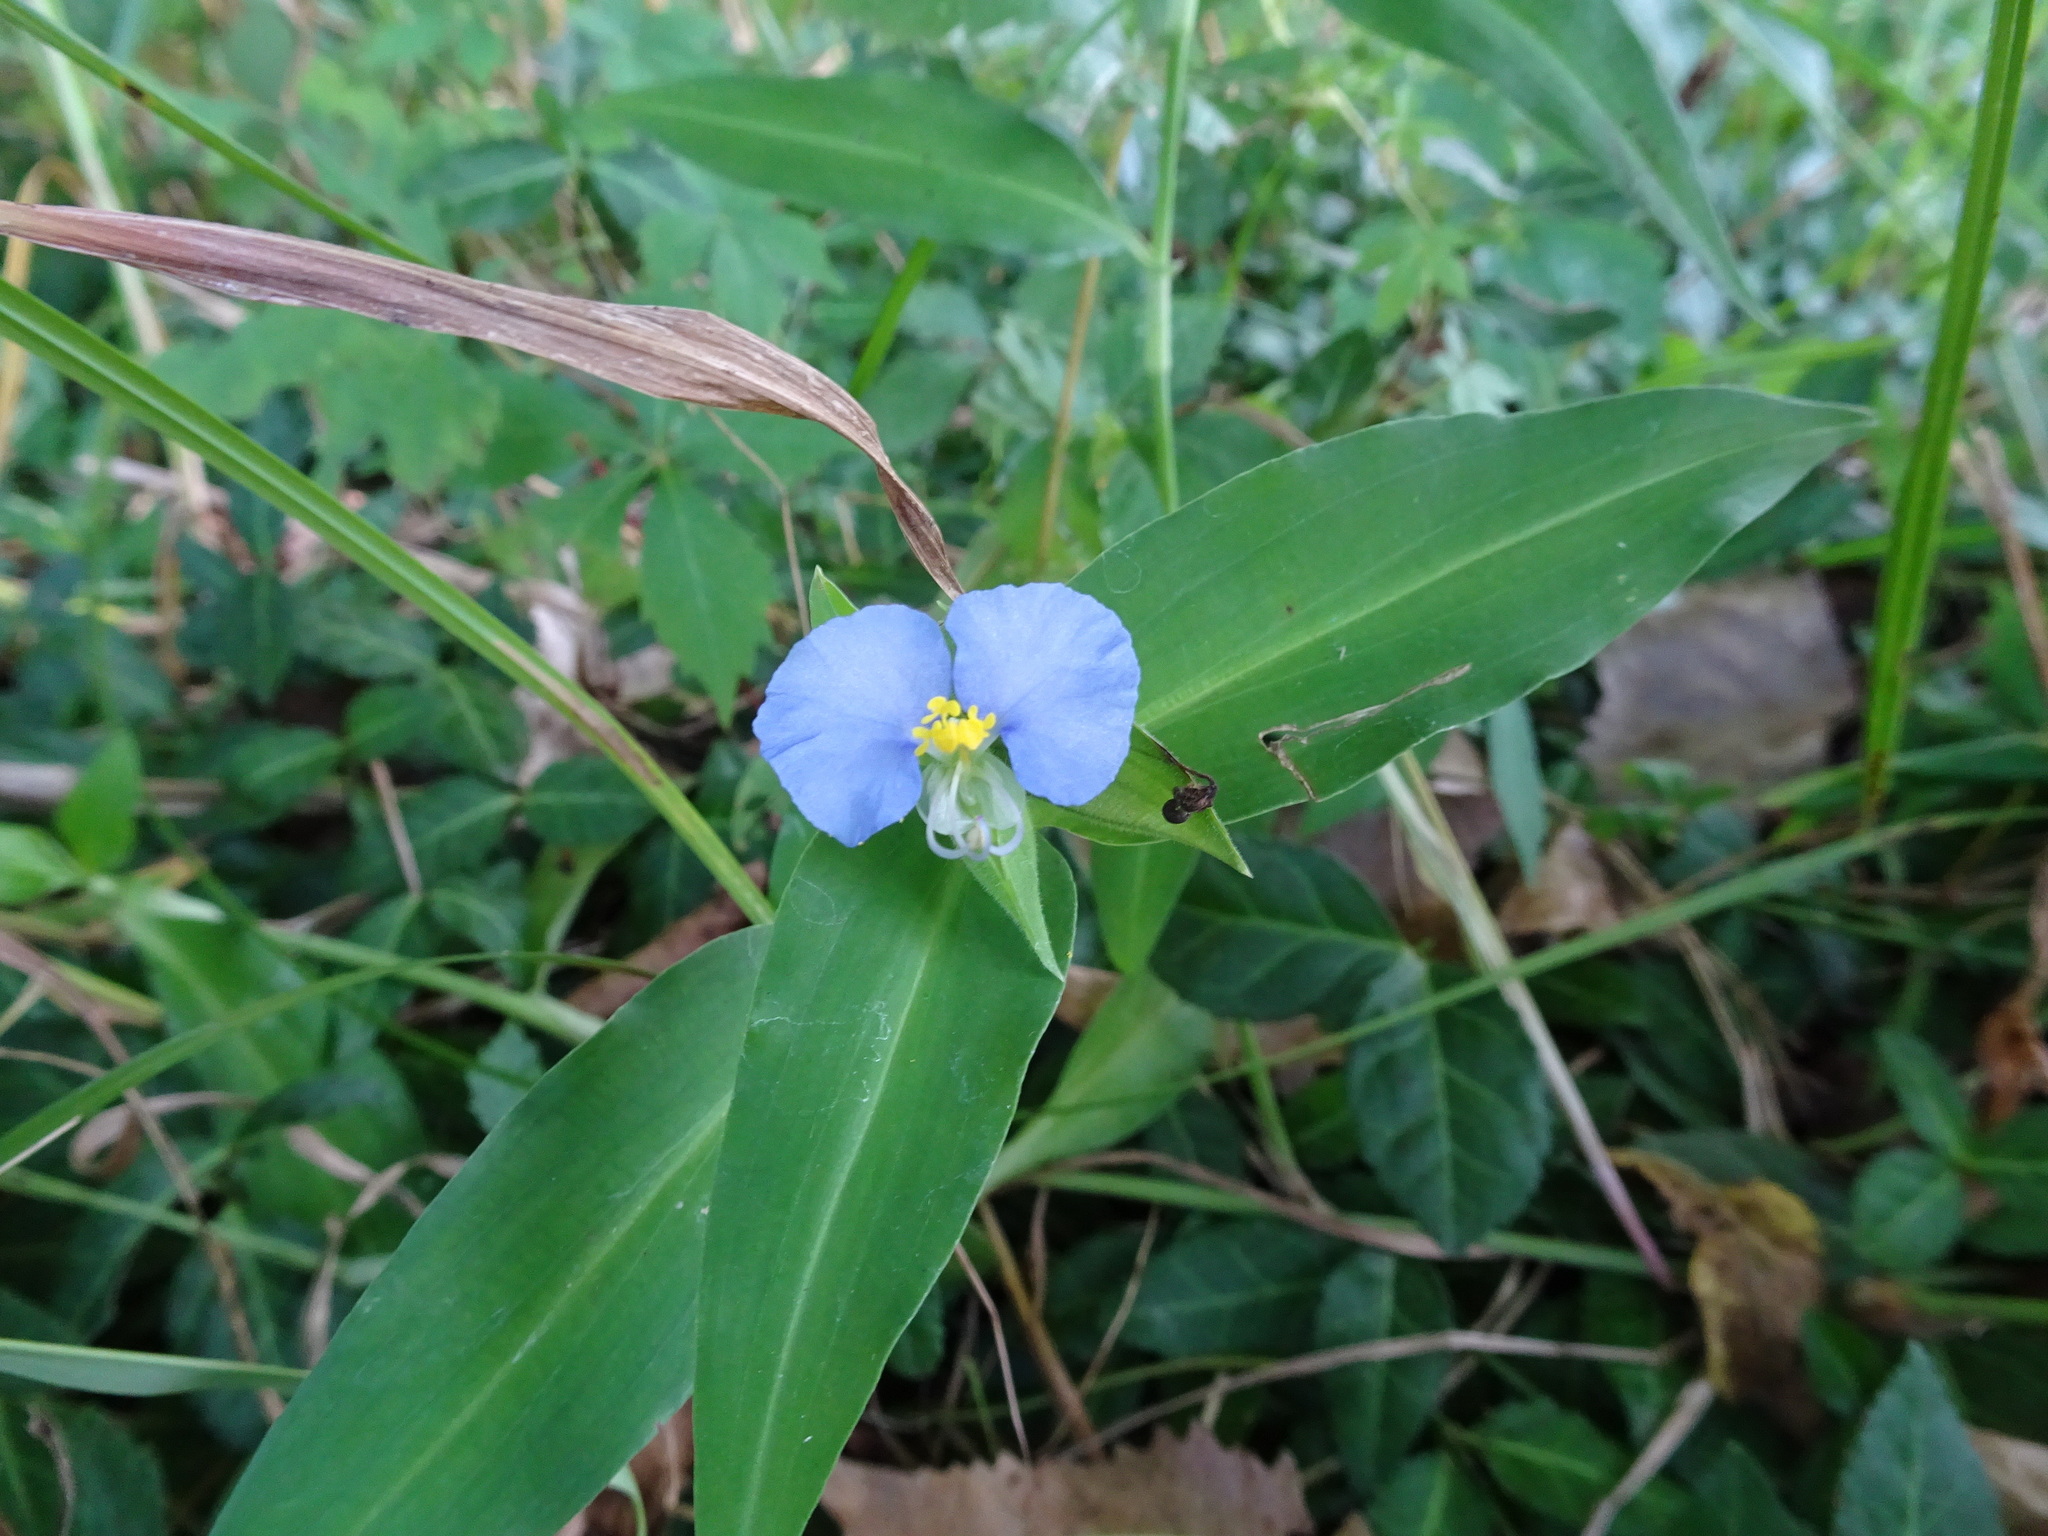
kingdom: Plantae
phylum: Tracheophyta
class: Liliopsida
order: Commelinales
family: Commelinaceae
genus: Commelina
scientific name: Commelina erecta
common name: Blousel blommetjie
